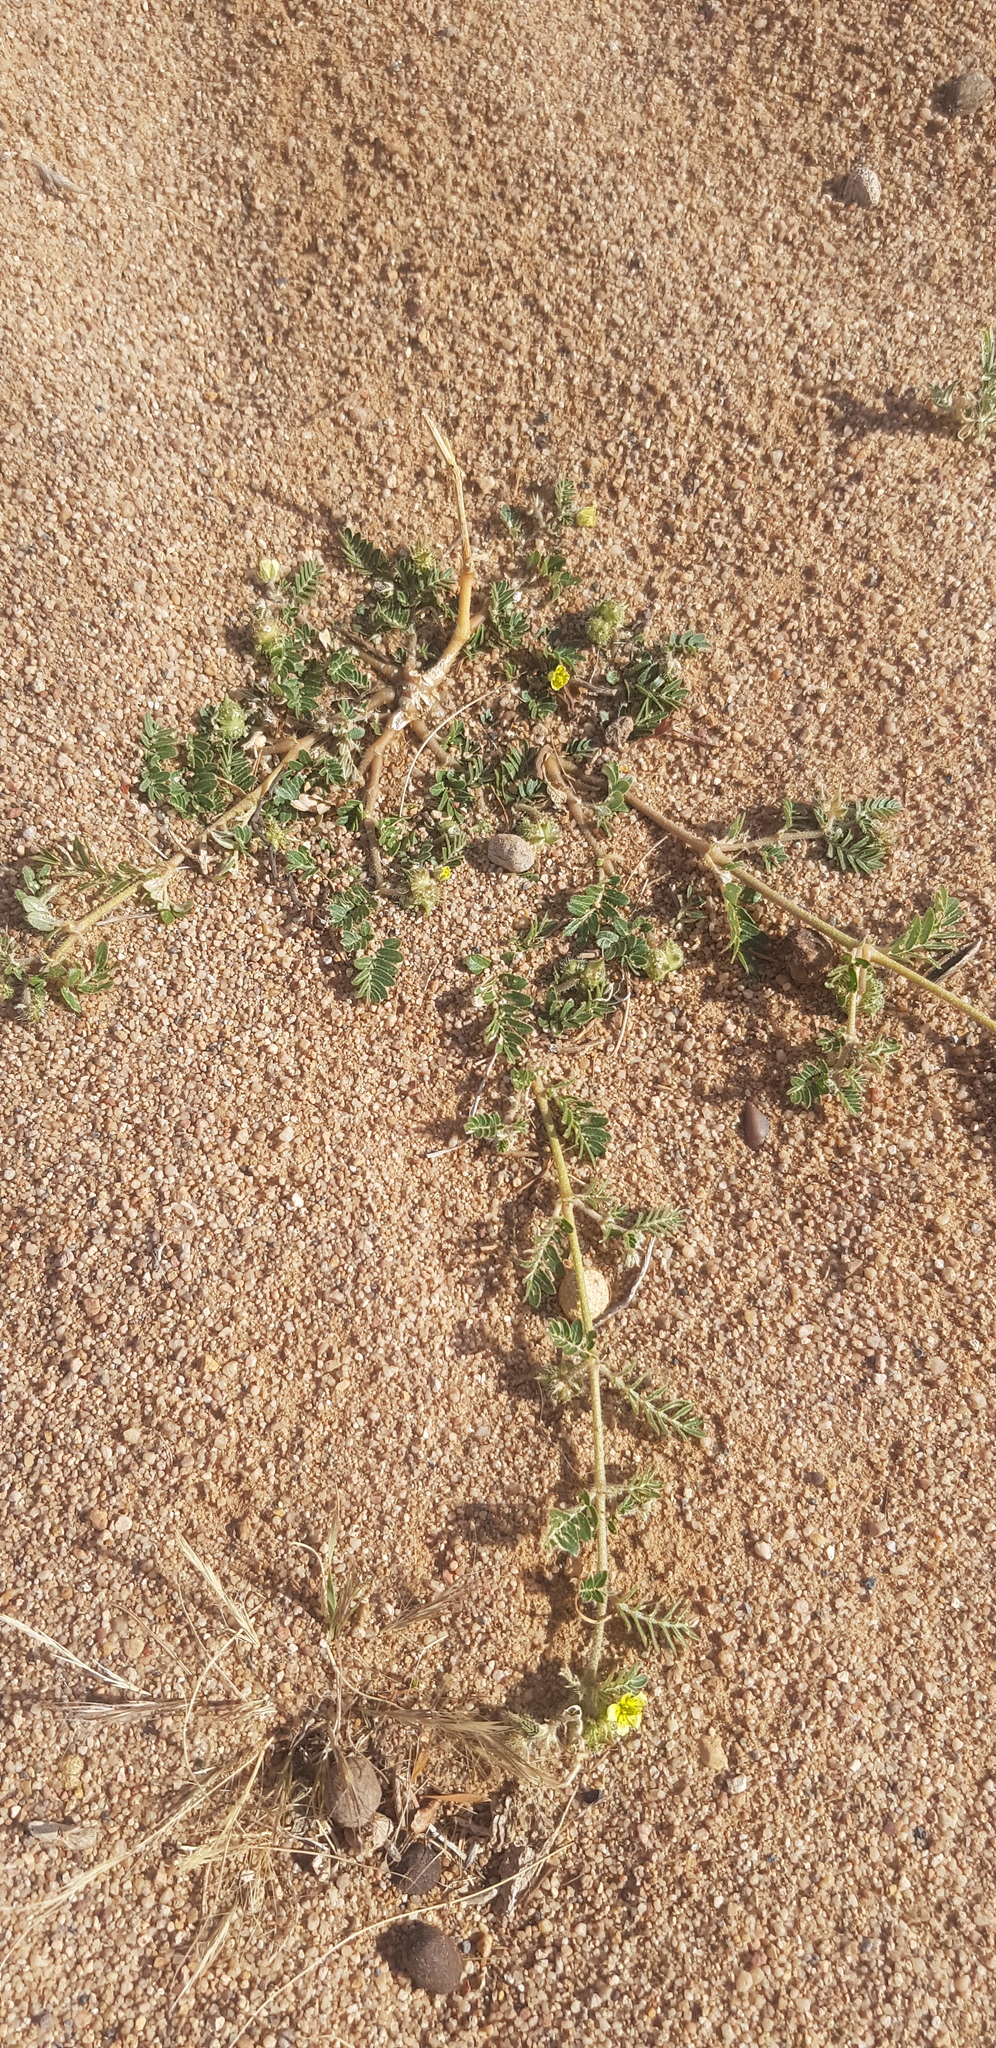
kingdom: Plantae
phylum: Tracheophyta
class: Magnoliopsida
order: Zygophyllales
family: Zygophyllaceae
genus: Tribulus
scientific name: Tribulus terrestris
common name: Puncturevine
